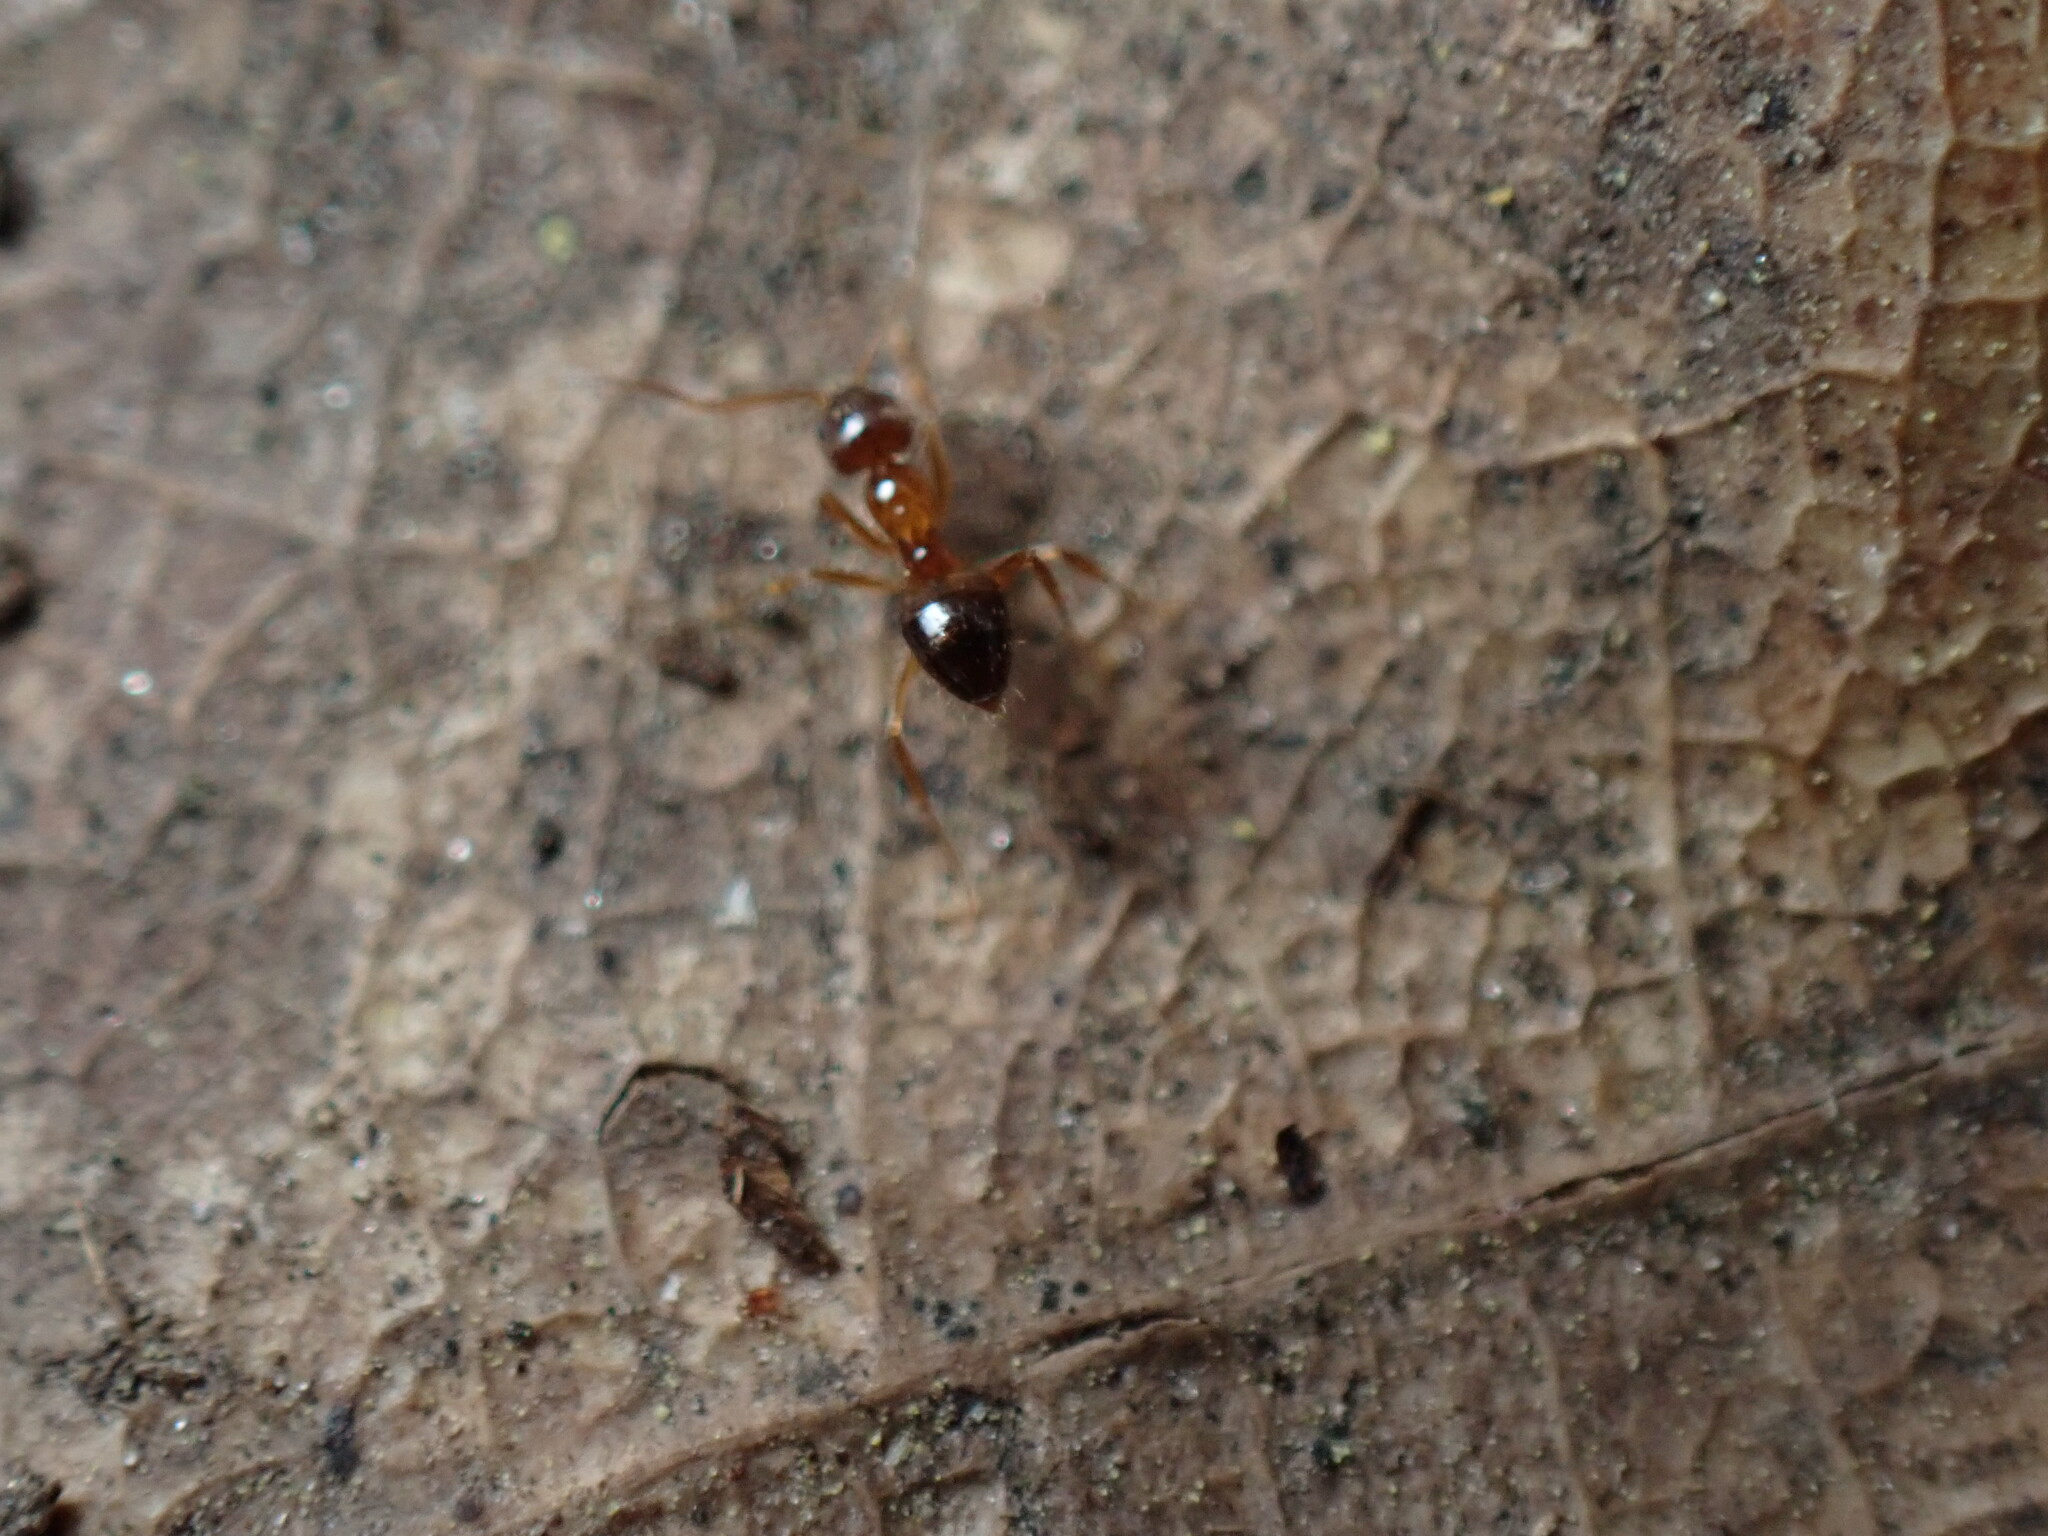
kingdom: Animalia
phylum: Arthropoda
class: Insecta
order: Hymenoptera
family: Formicidae
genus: Paratrechina
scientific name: Paratrechina flavipes
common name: Eastern asian formicine ant
